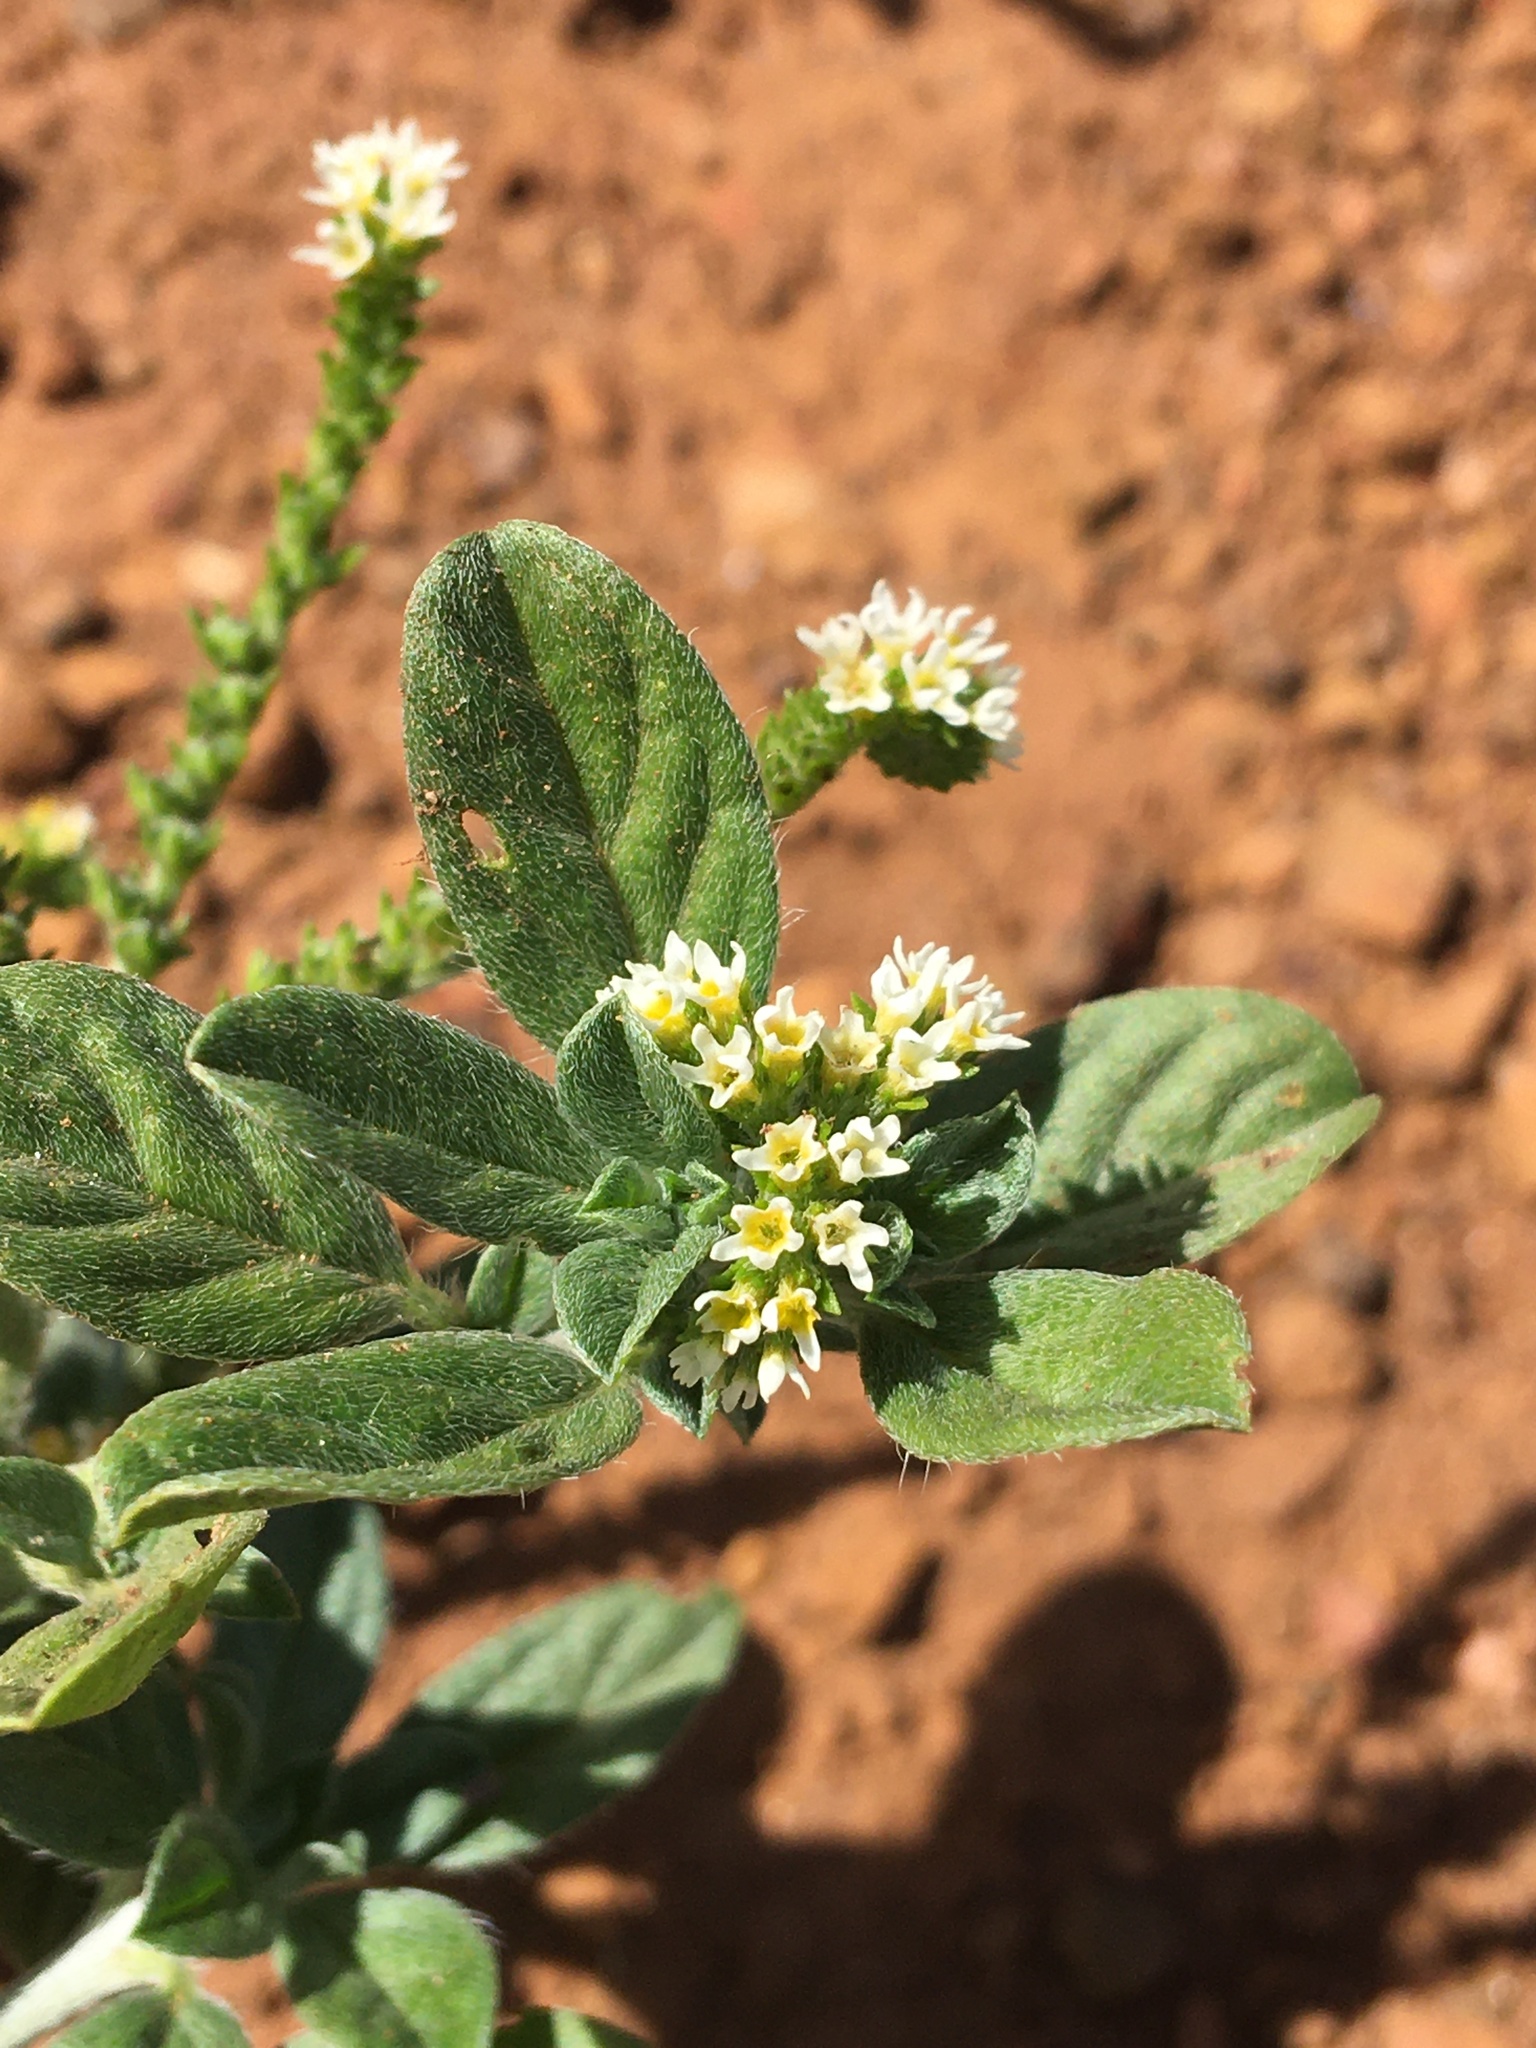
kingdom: Plantae
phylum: Tracheophyta
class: Magnoliopsida
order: Boraginales
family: Heliotropiaceae
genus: Euploca
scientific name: Euploca procumbens
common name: Fourspike heliotrope
